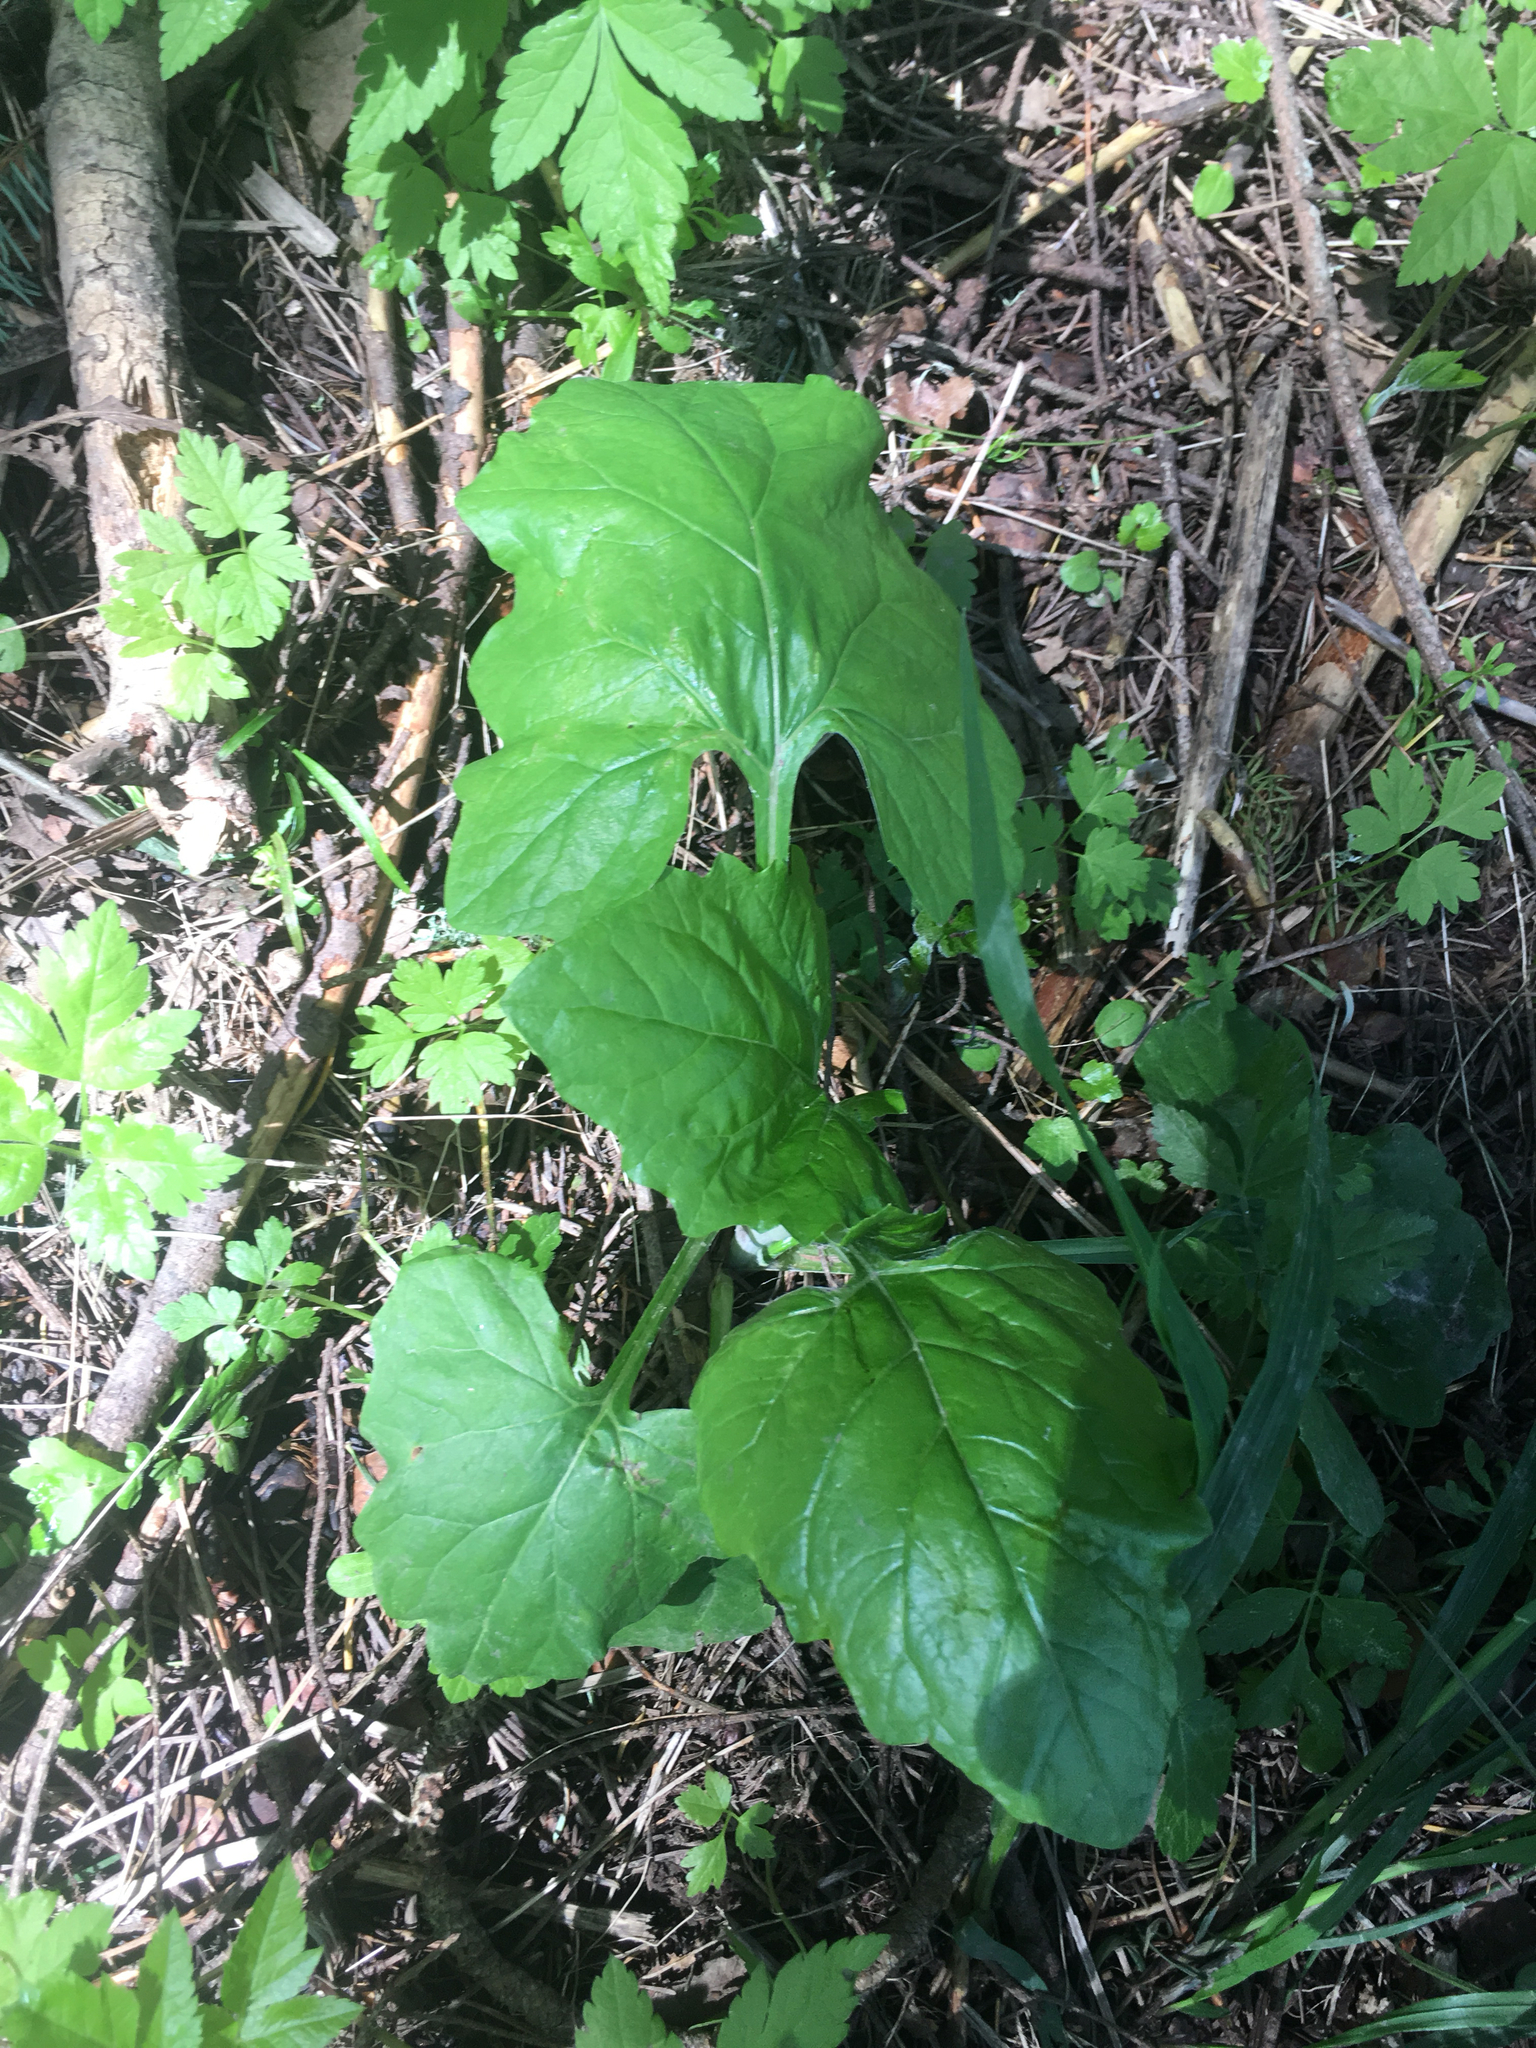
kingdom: Plantae
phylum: Tracheophyta
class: Magnoliopsida
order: Asterales
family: Asteraceae
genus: Adenocaulon
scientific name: Adenocaulon bicolor
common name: Trailplant
